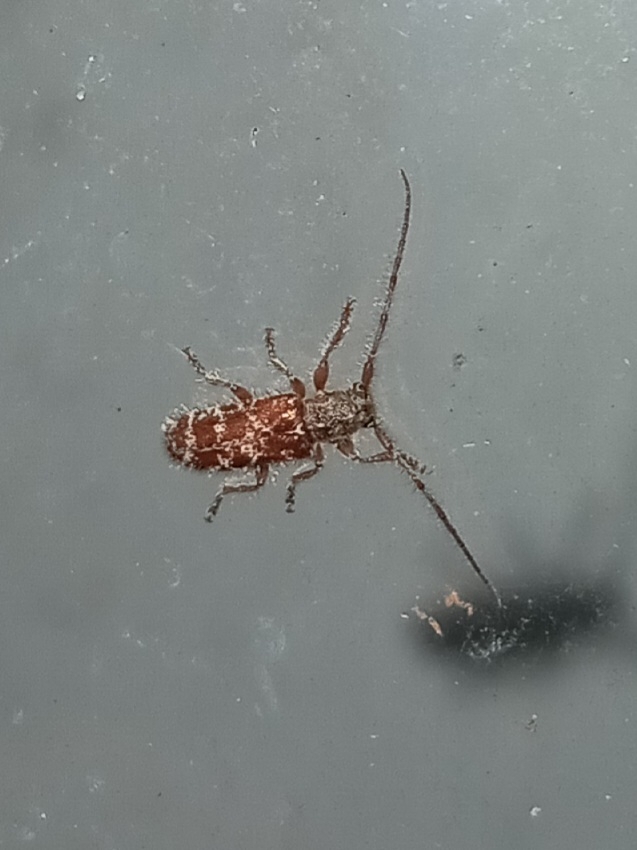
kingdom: Animalia
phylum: Arthropoda
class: Insecta
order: Coleoptera
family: Cerambycidae
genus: Eupogonius
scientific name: Eupogonius tomentosus
